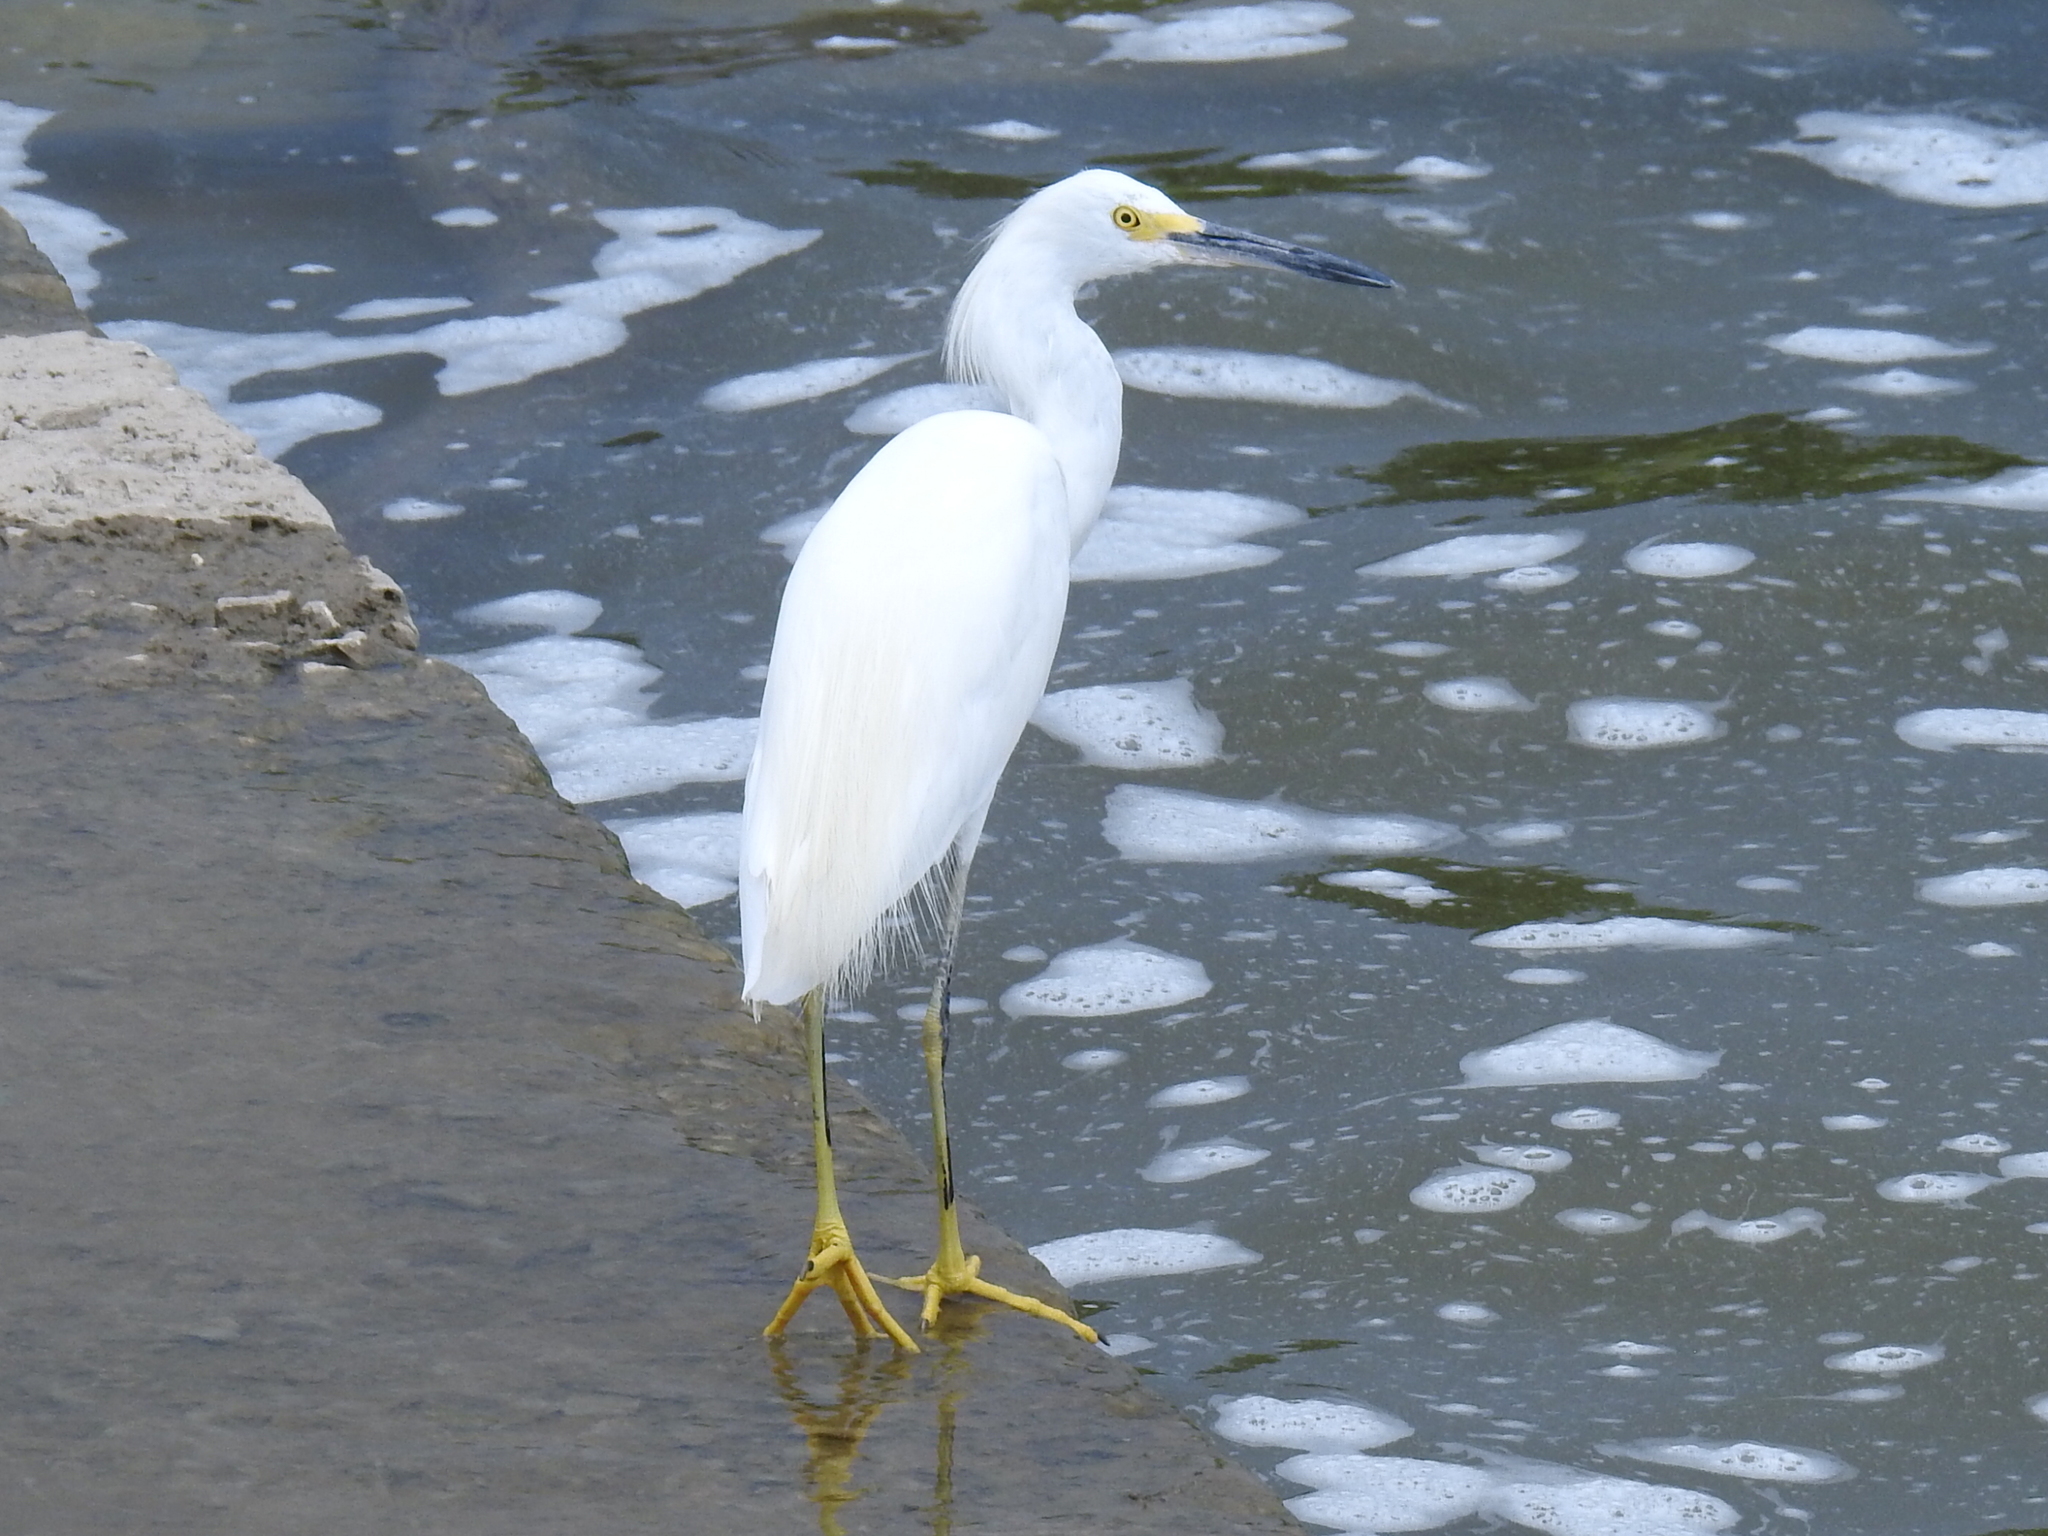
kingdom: Animalia
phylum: Chordata
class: Aves
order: Pelecaniformes
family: Ardeidae
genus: Egretta
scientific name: Egretta thula
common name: Snowy egret
